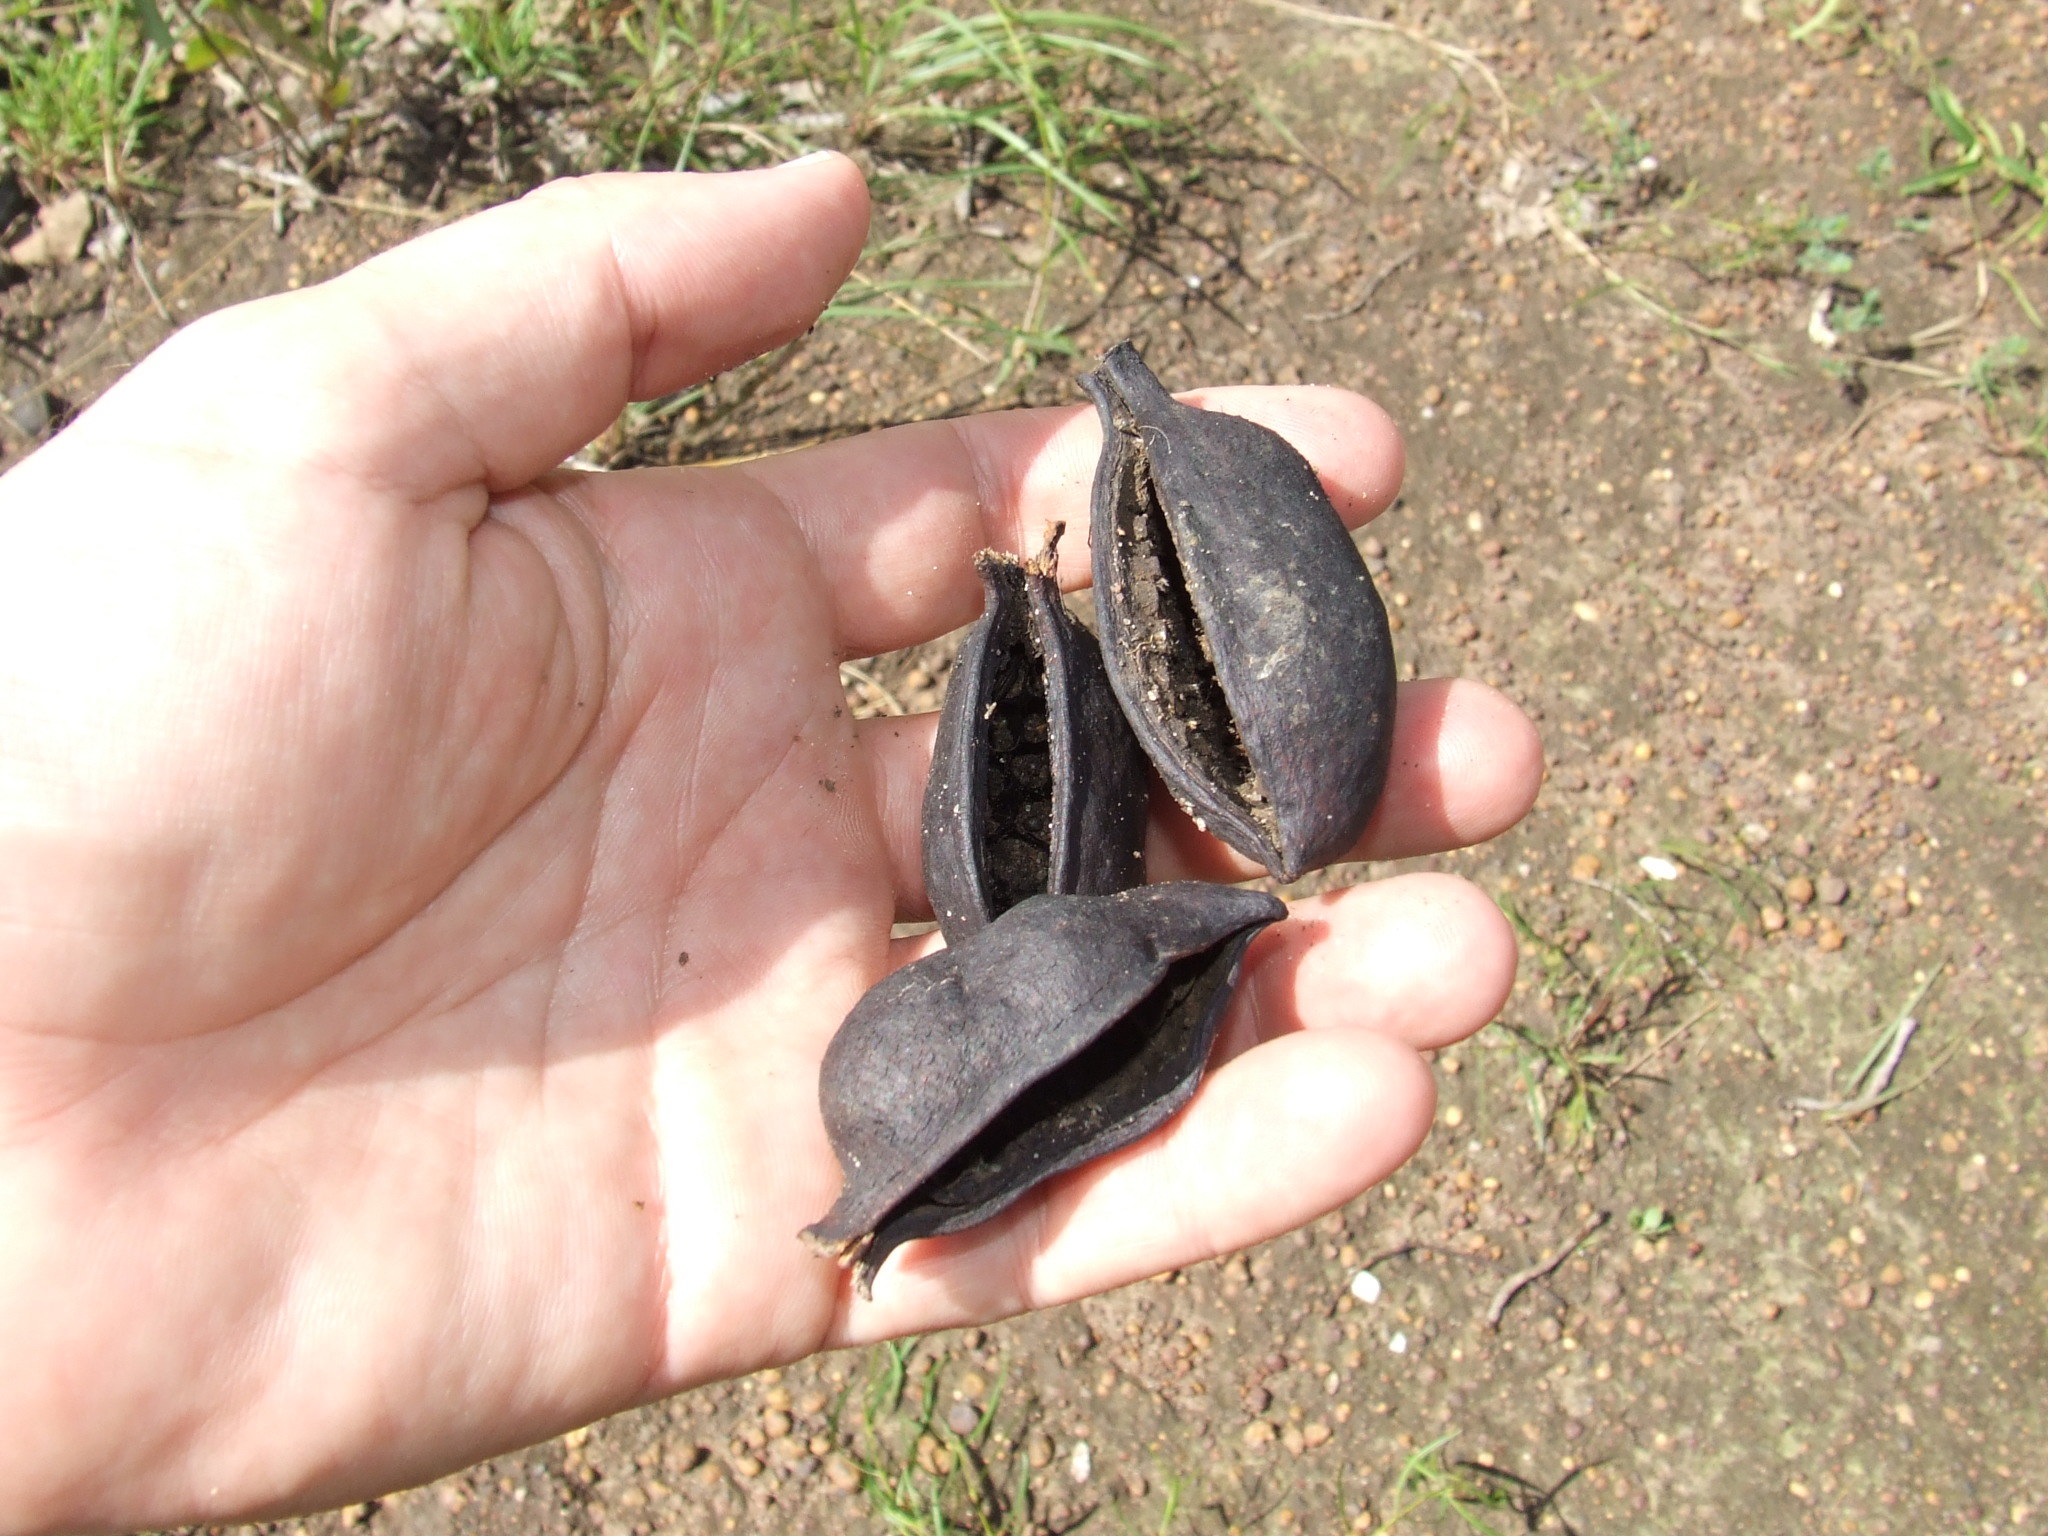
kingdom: Plantae
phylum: Tracheophyta
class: Magnoliopsida
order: Malvales
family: Malvaceae
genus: Brachychiton
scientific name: Brachychiton diversifolius
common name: Northern kurrajong
